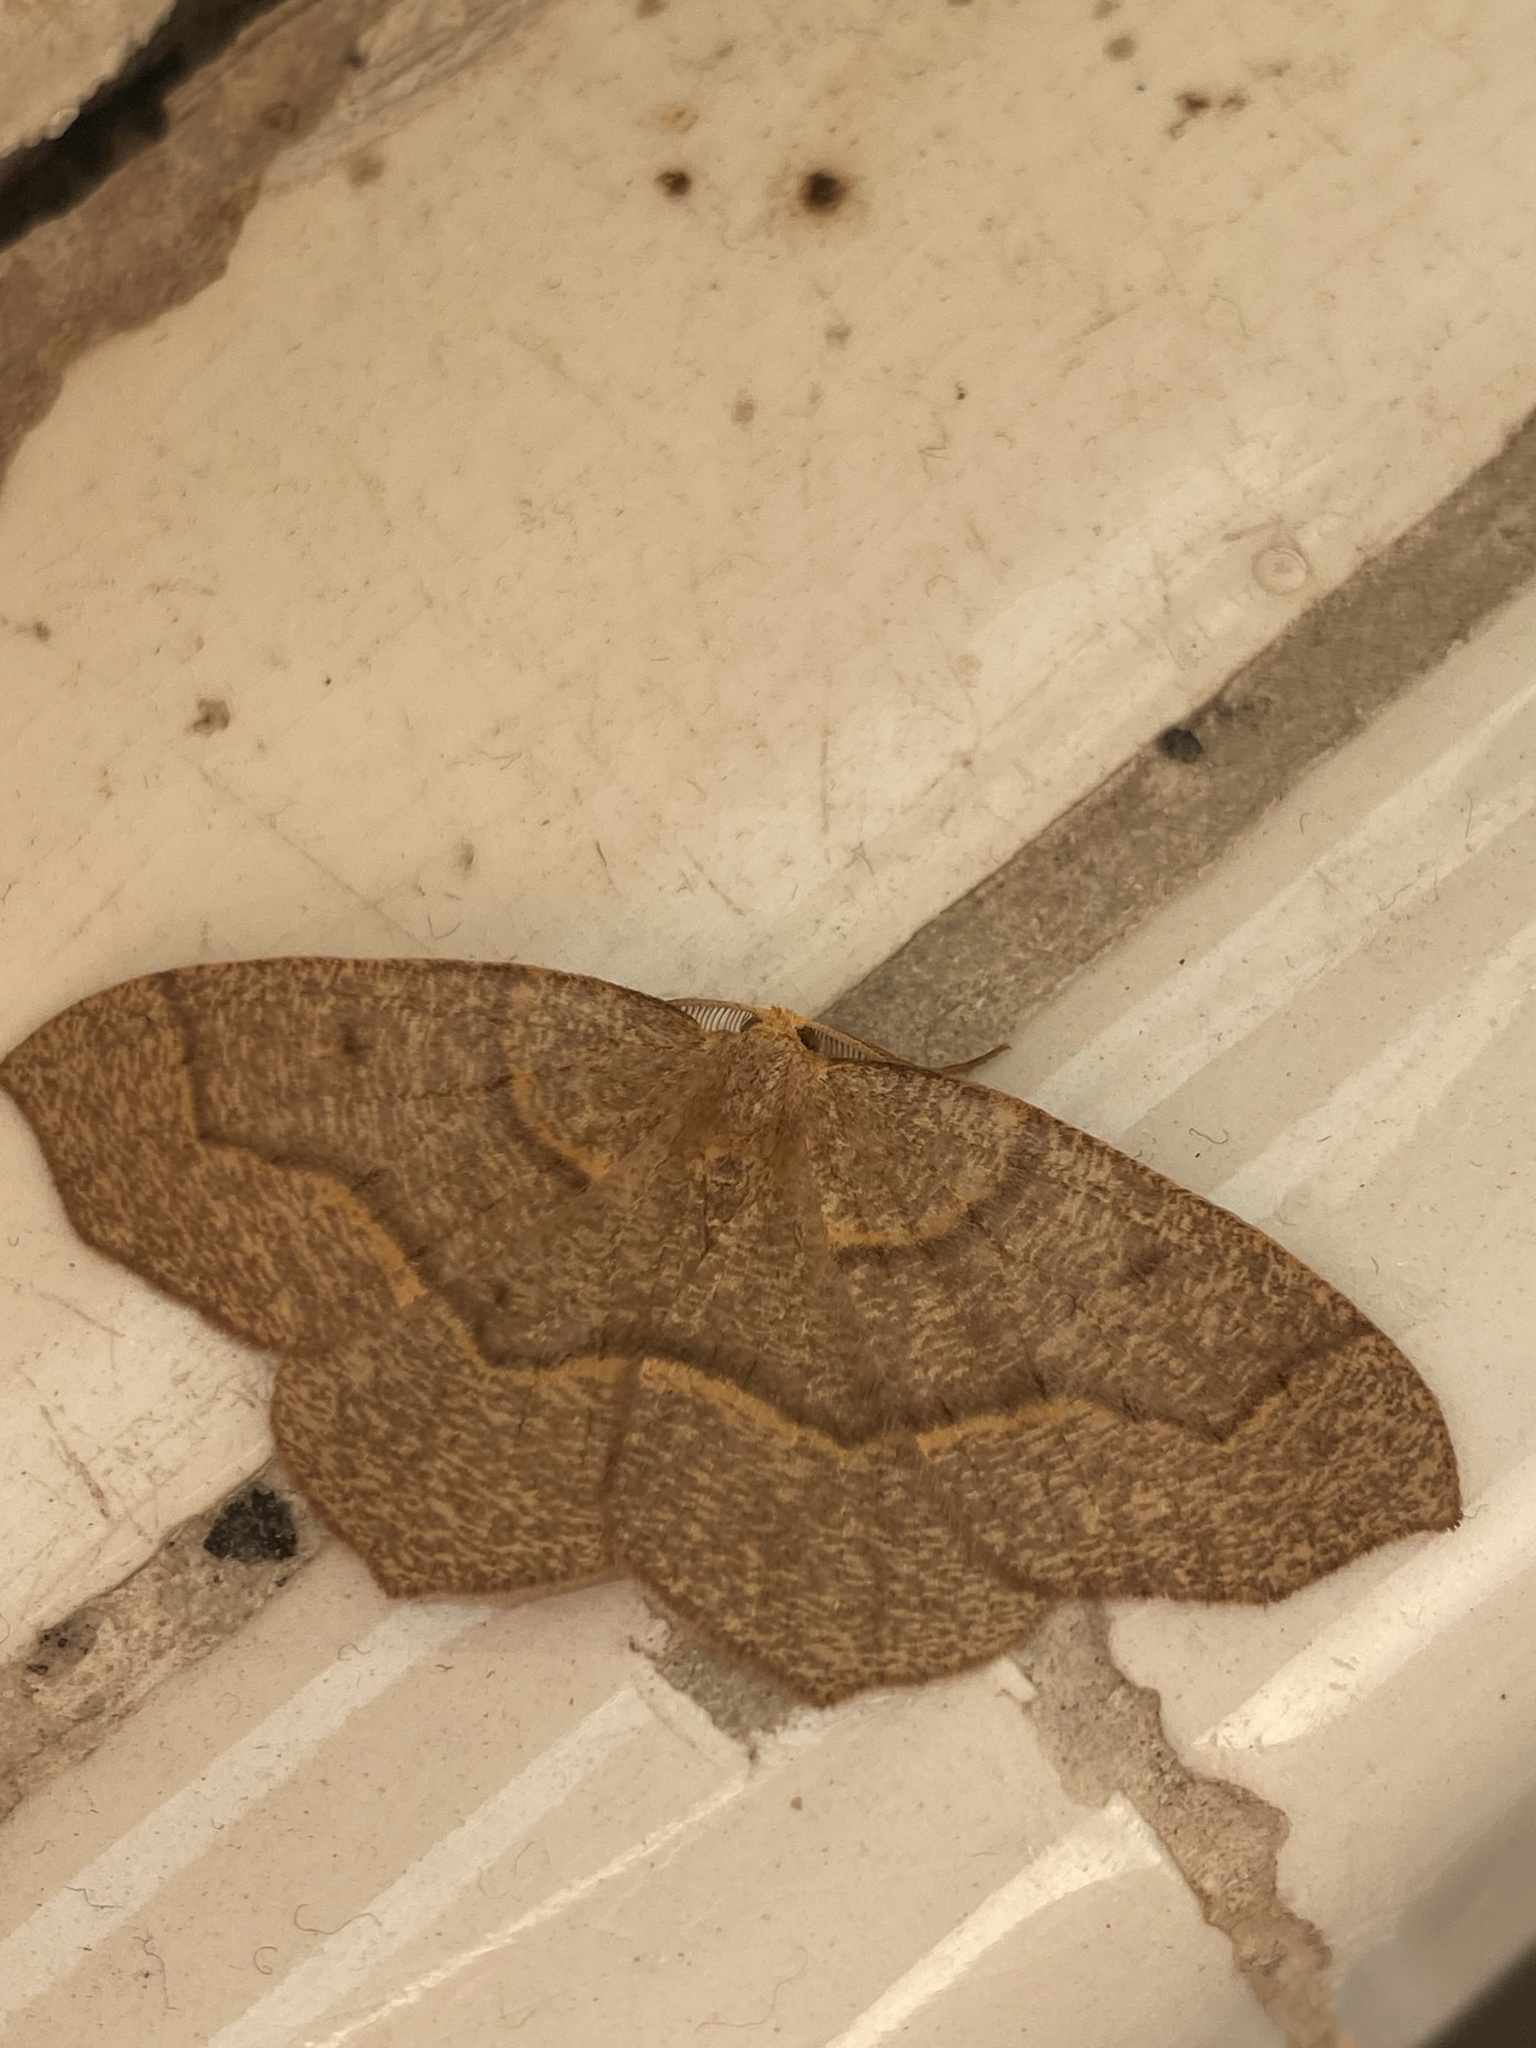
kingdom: Animalia
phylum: Arthropoda
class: Insecta
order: Lepidoptera
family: Geometridae
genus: Lambdina
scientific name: Lambdina fiscellaria
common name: Hemlock looper
